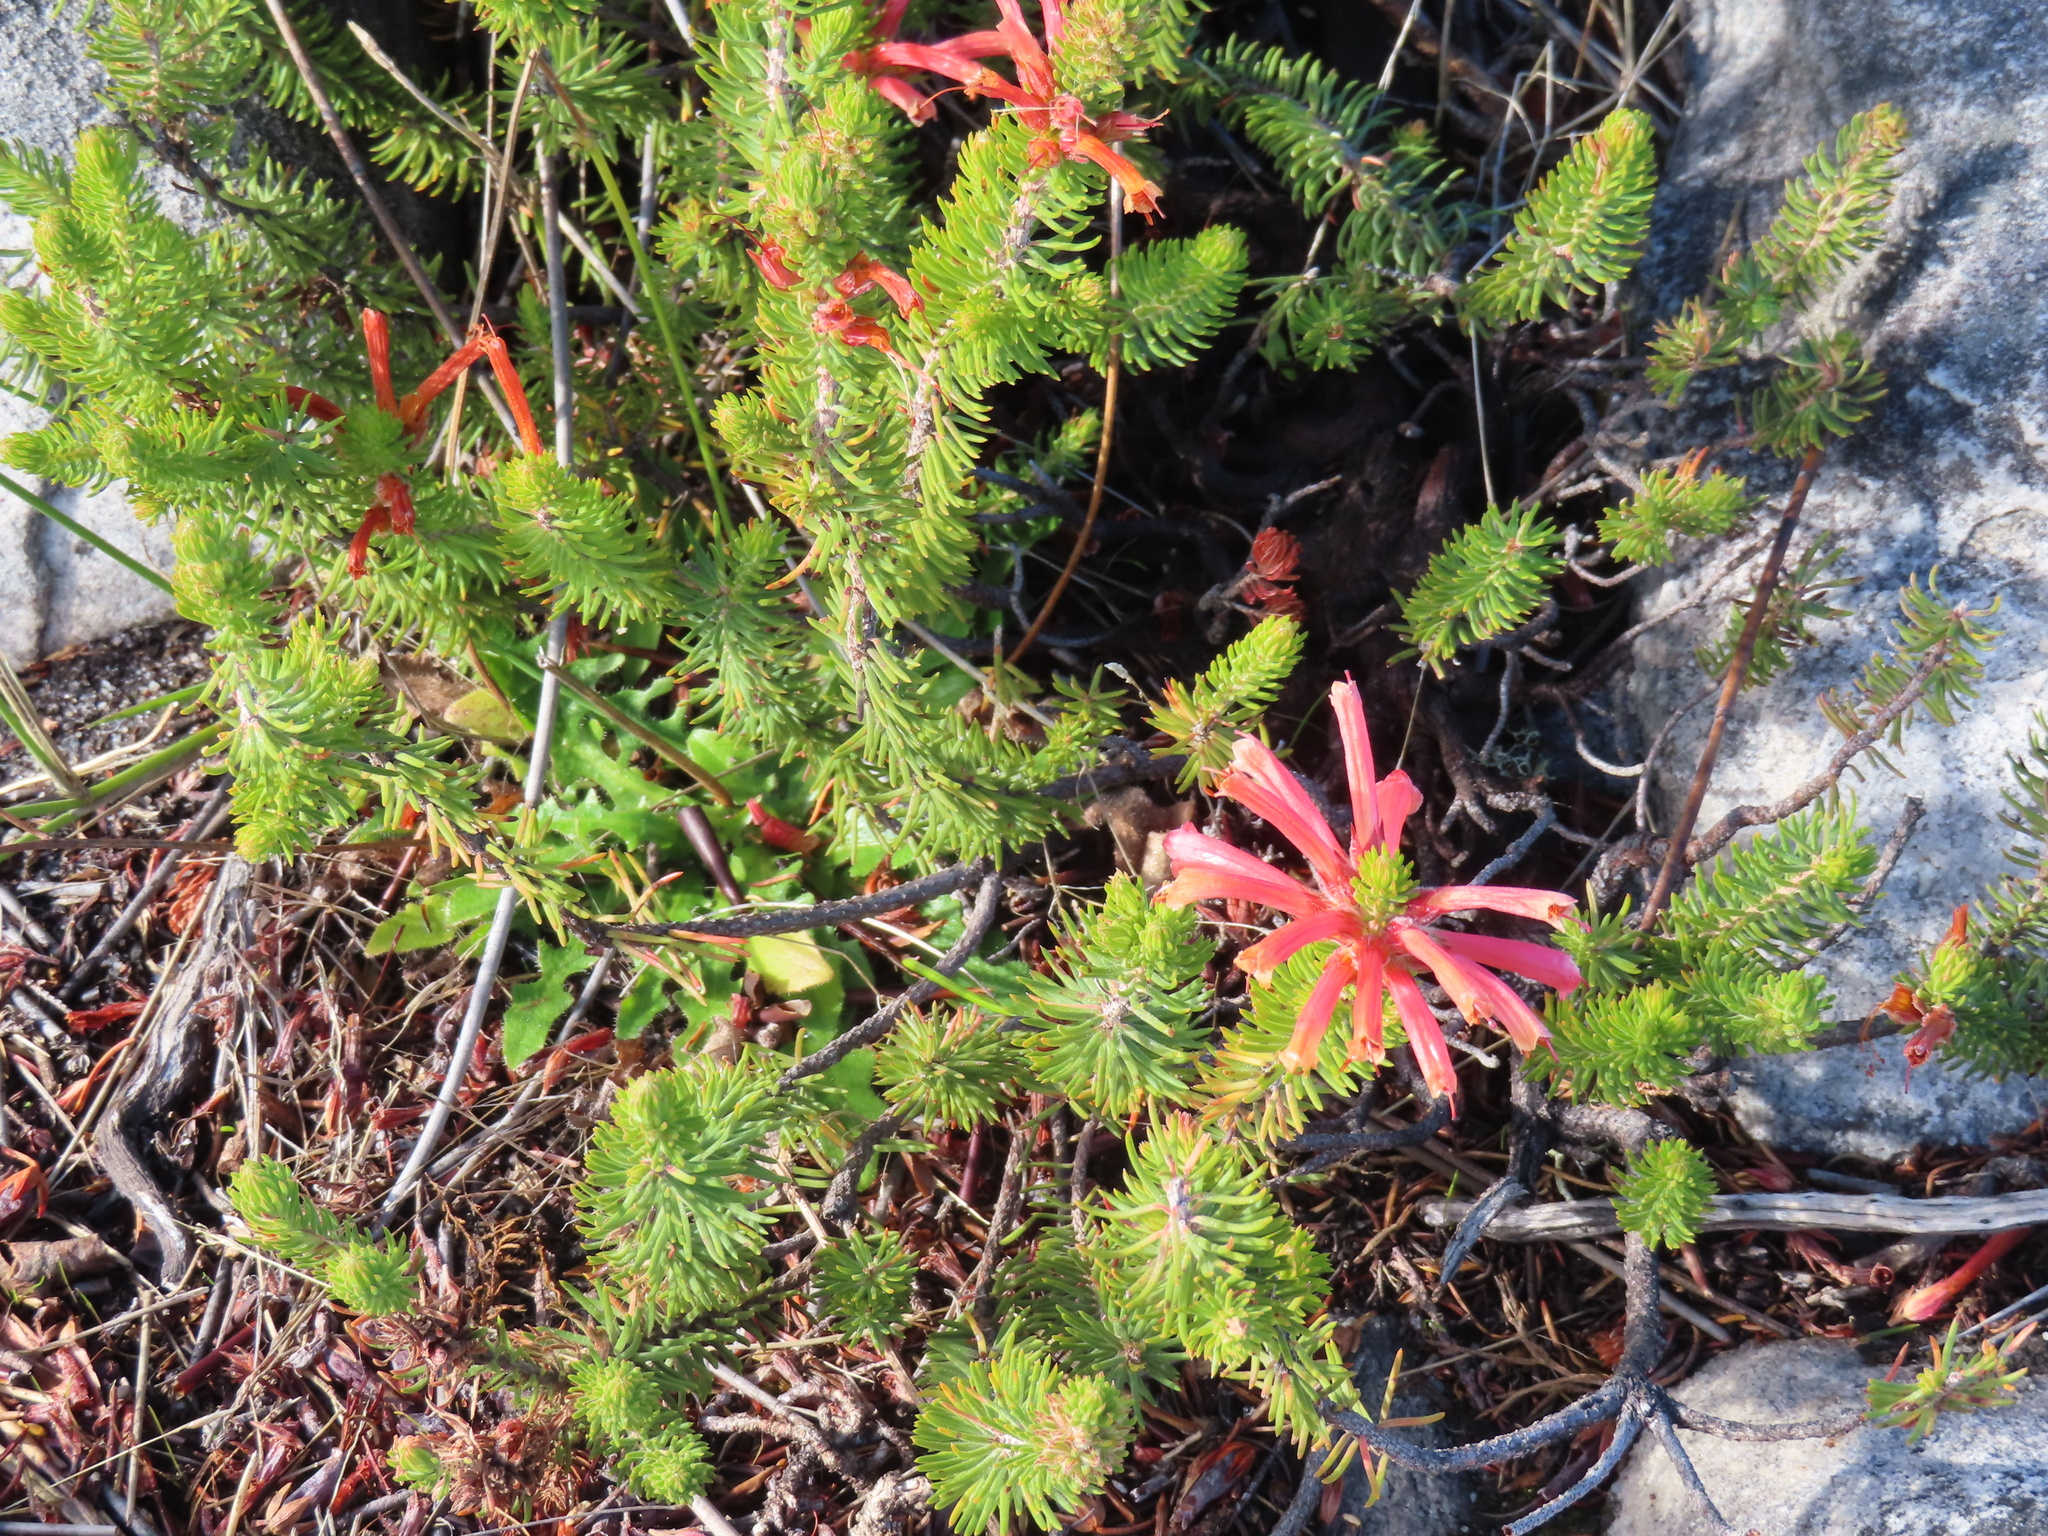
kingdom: Plantae
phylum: Tracheophyta
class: Magnoliopsida
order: Ericales
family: Ericaceae
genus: Erica
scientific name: Erica abietina
